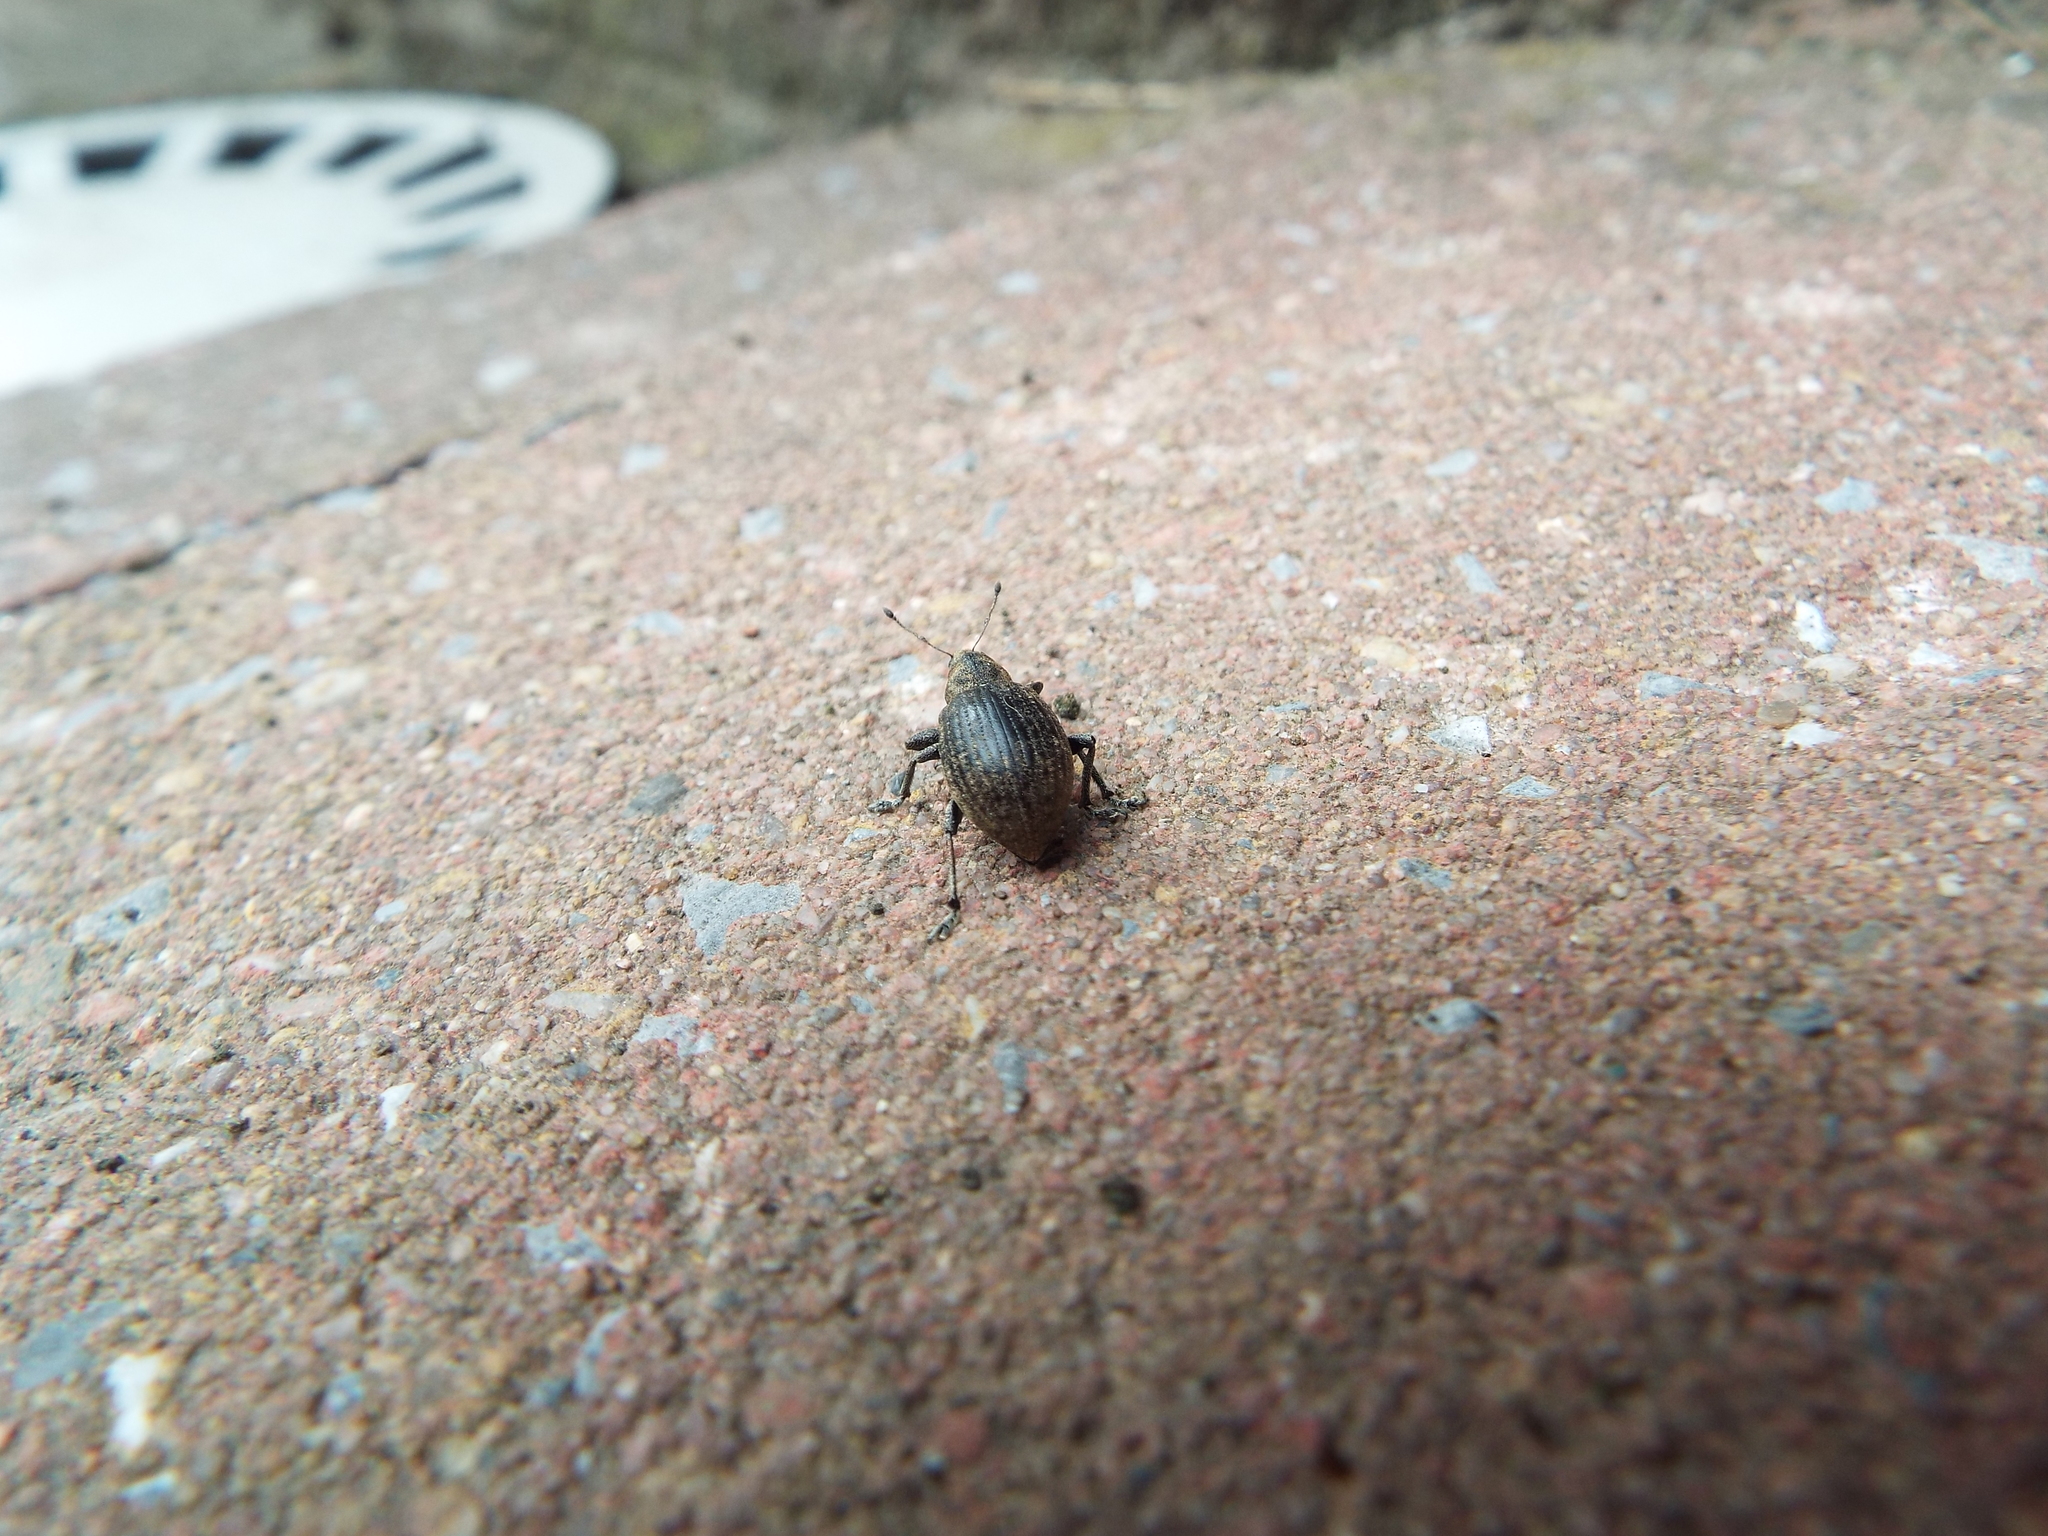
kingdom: Animalia
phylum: Arthropoda
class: Insecta
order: Coleoptera
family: Curculionidae
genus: Liophloeus
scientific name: Liophloeus tessulatus
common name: Weevil
